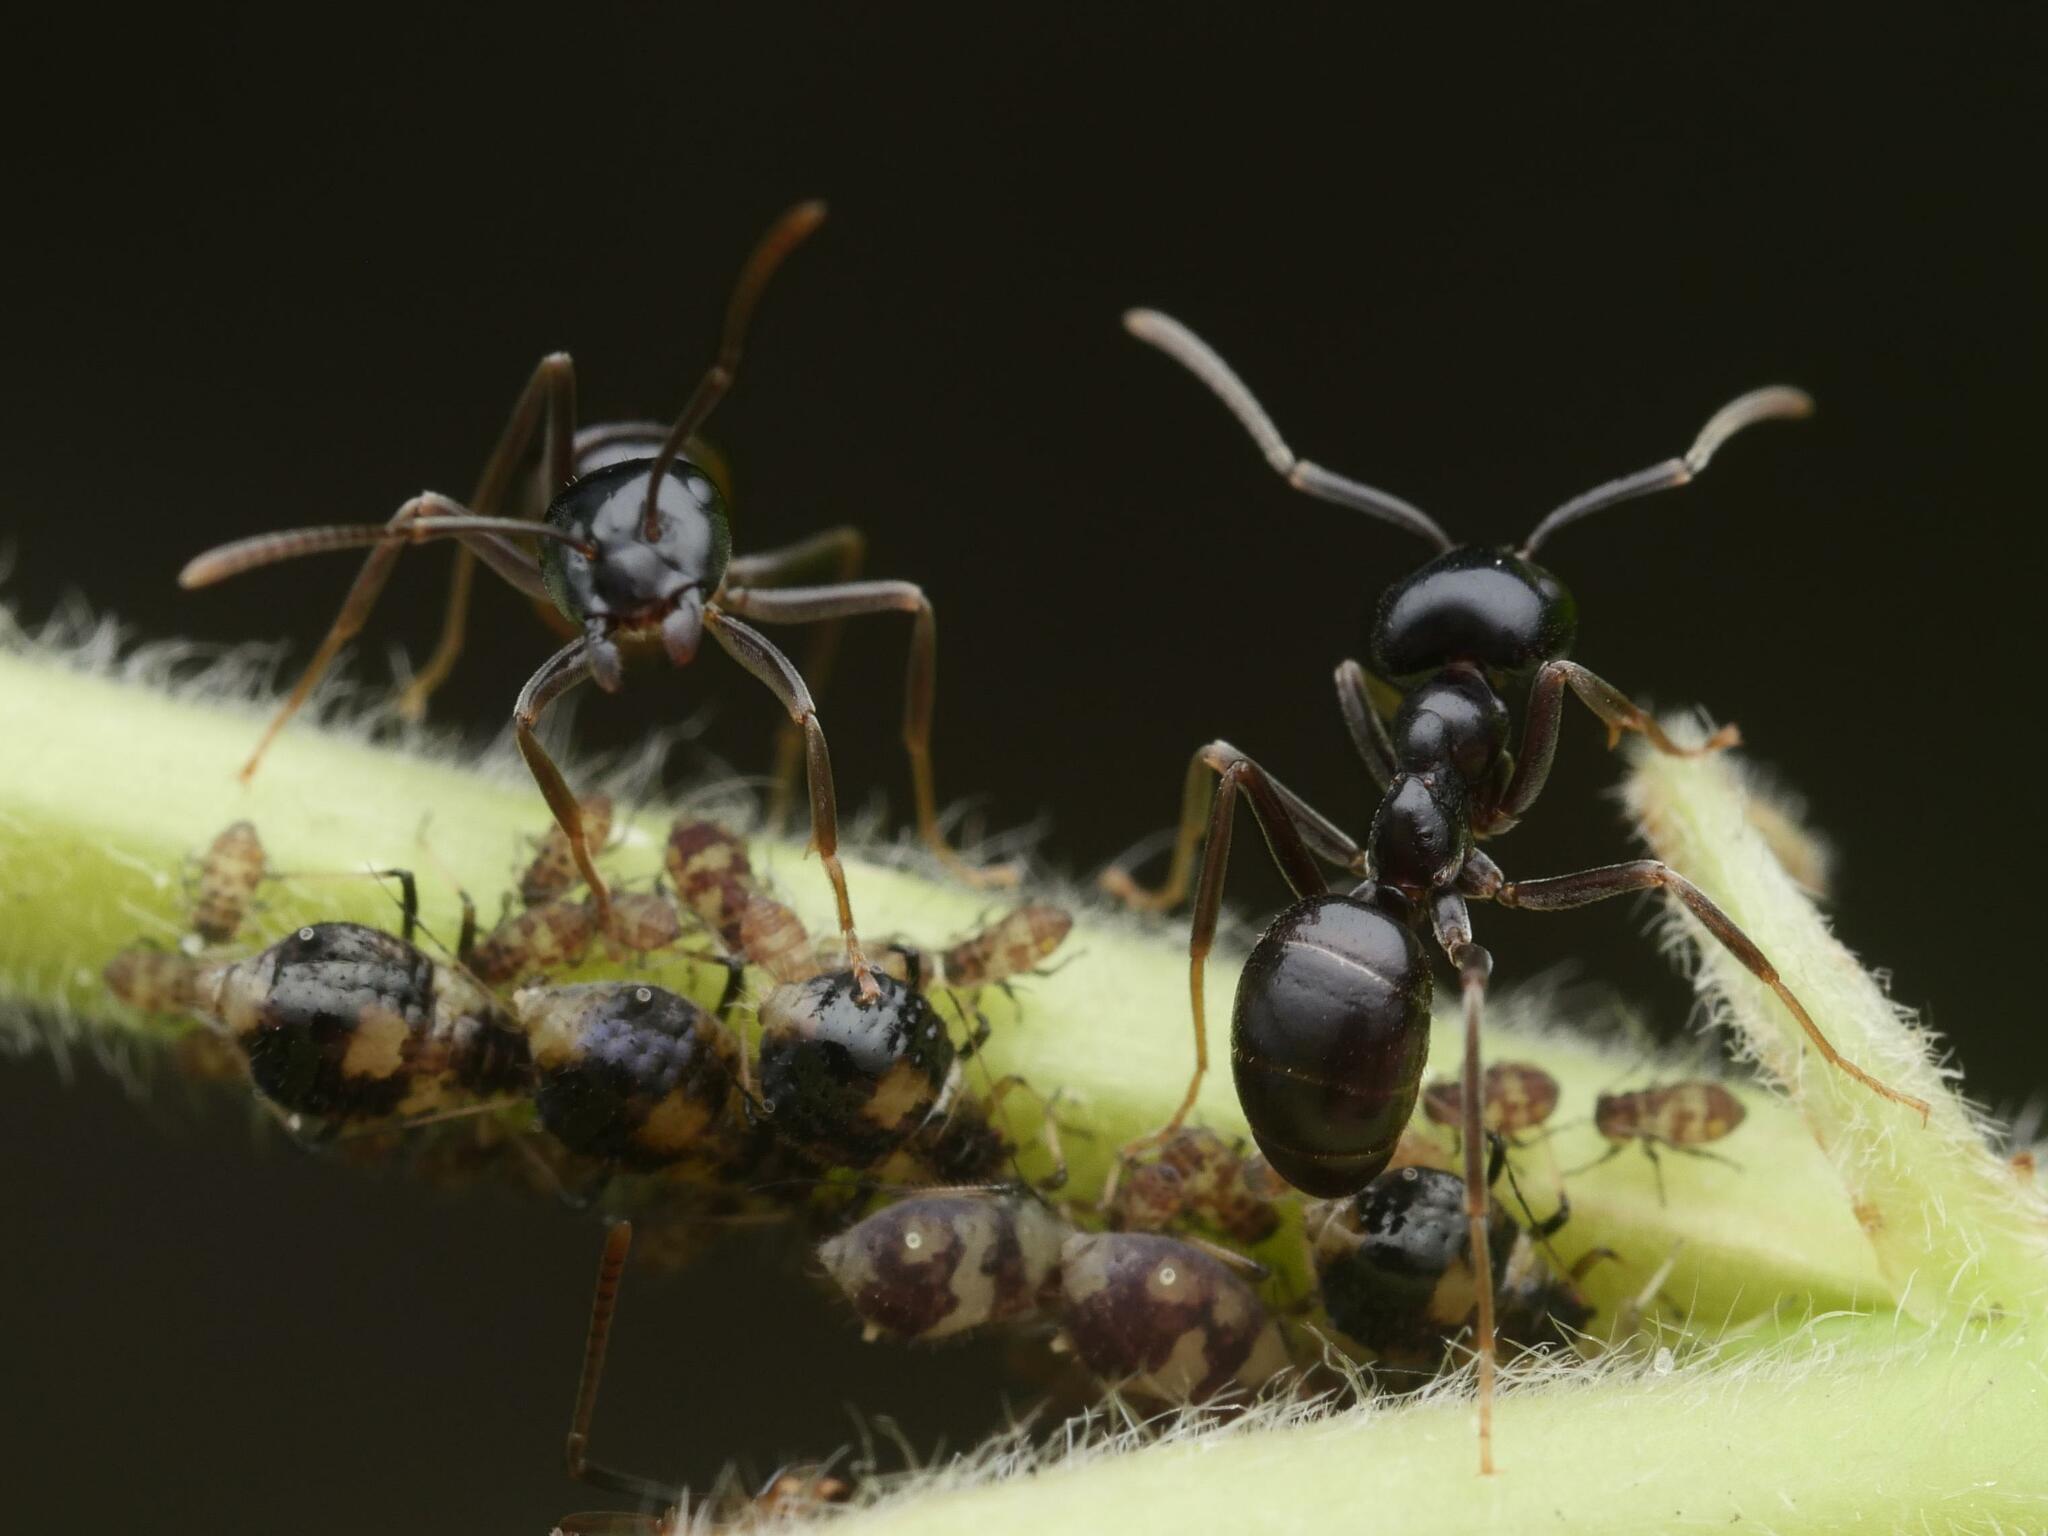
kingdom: Animalia
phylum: Arthropoda
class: Insecta
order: Hymenoptera
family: Formicidae
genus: Lasius
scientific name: Lasius fuliginosus
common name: Jet ant
